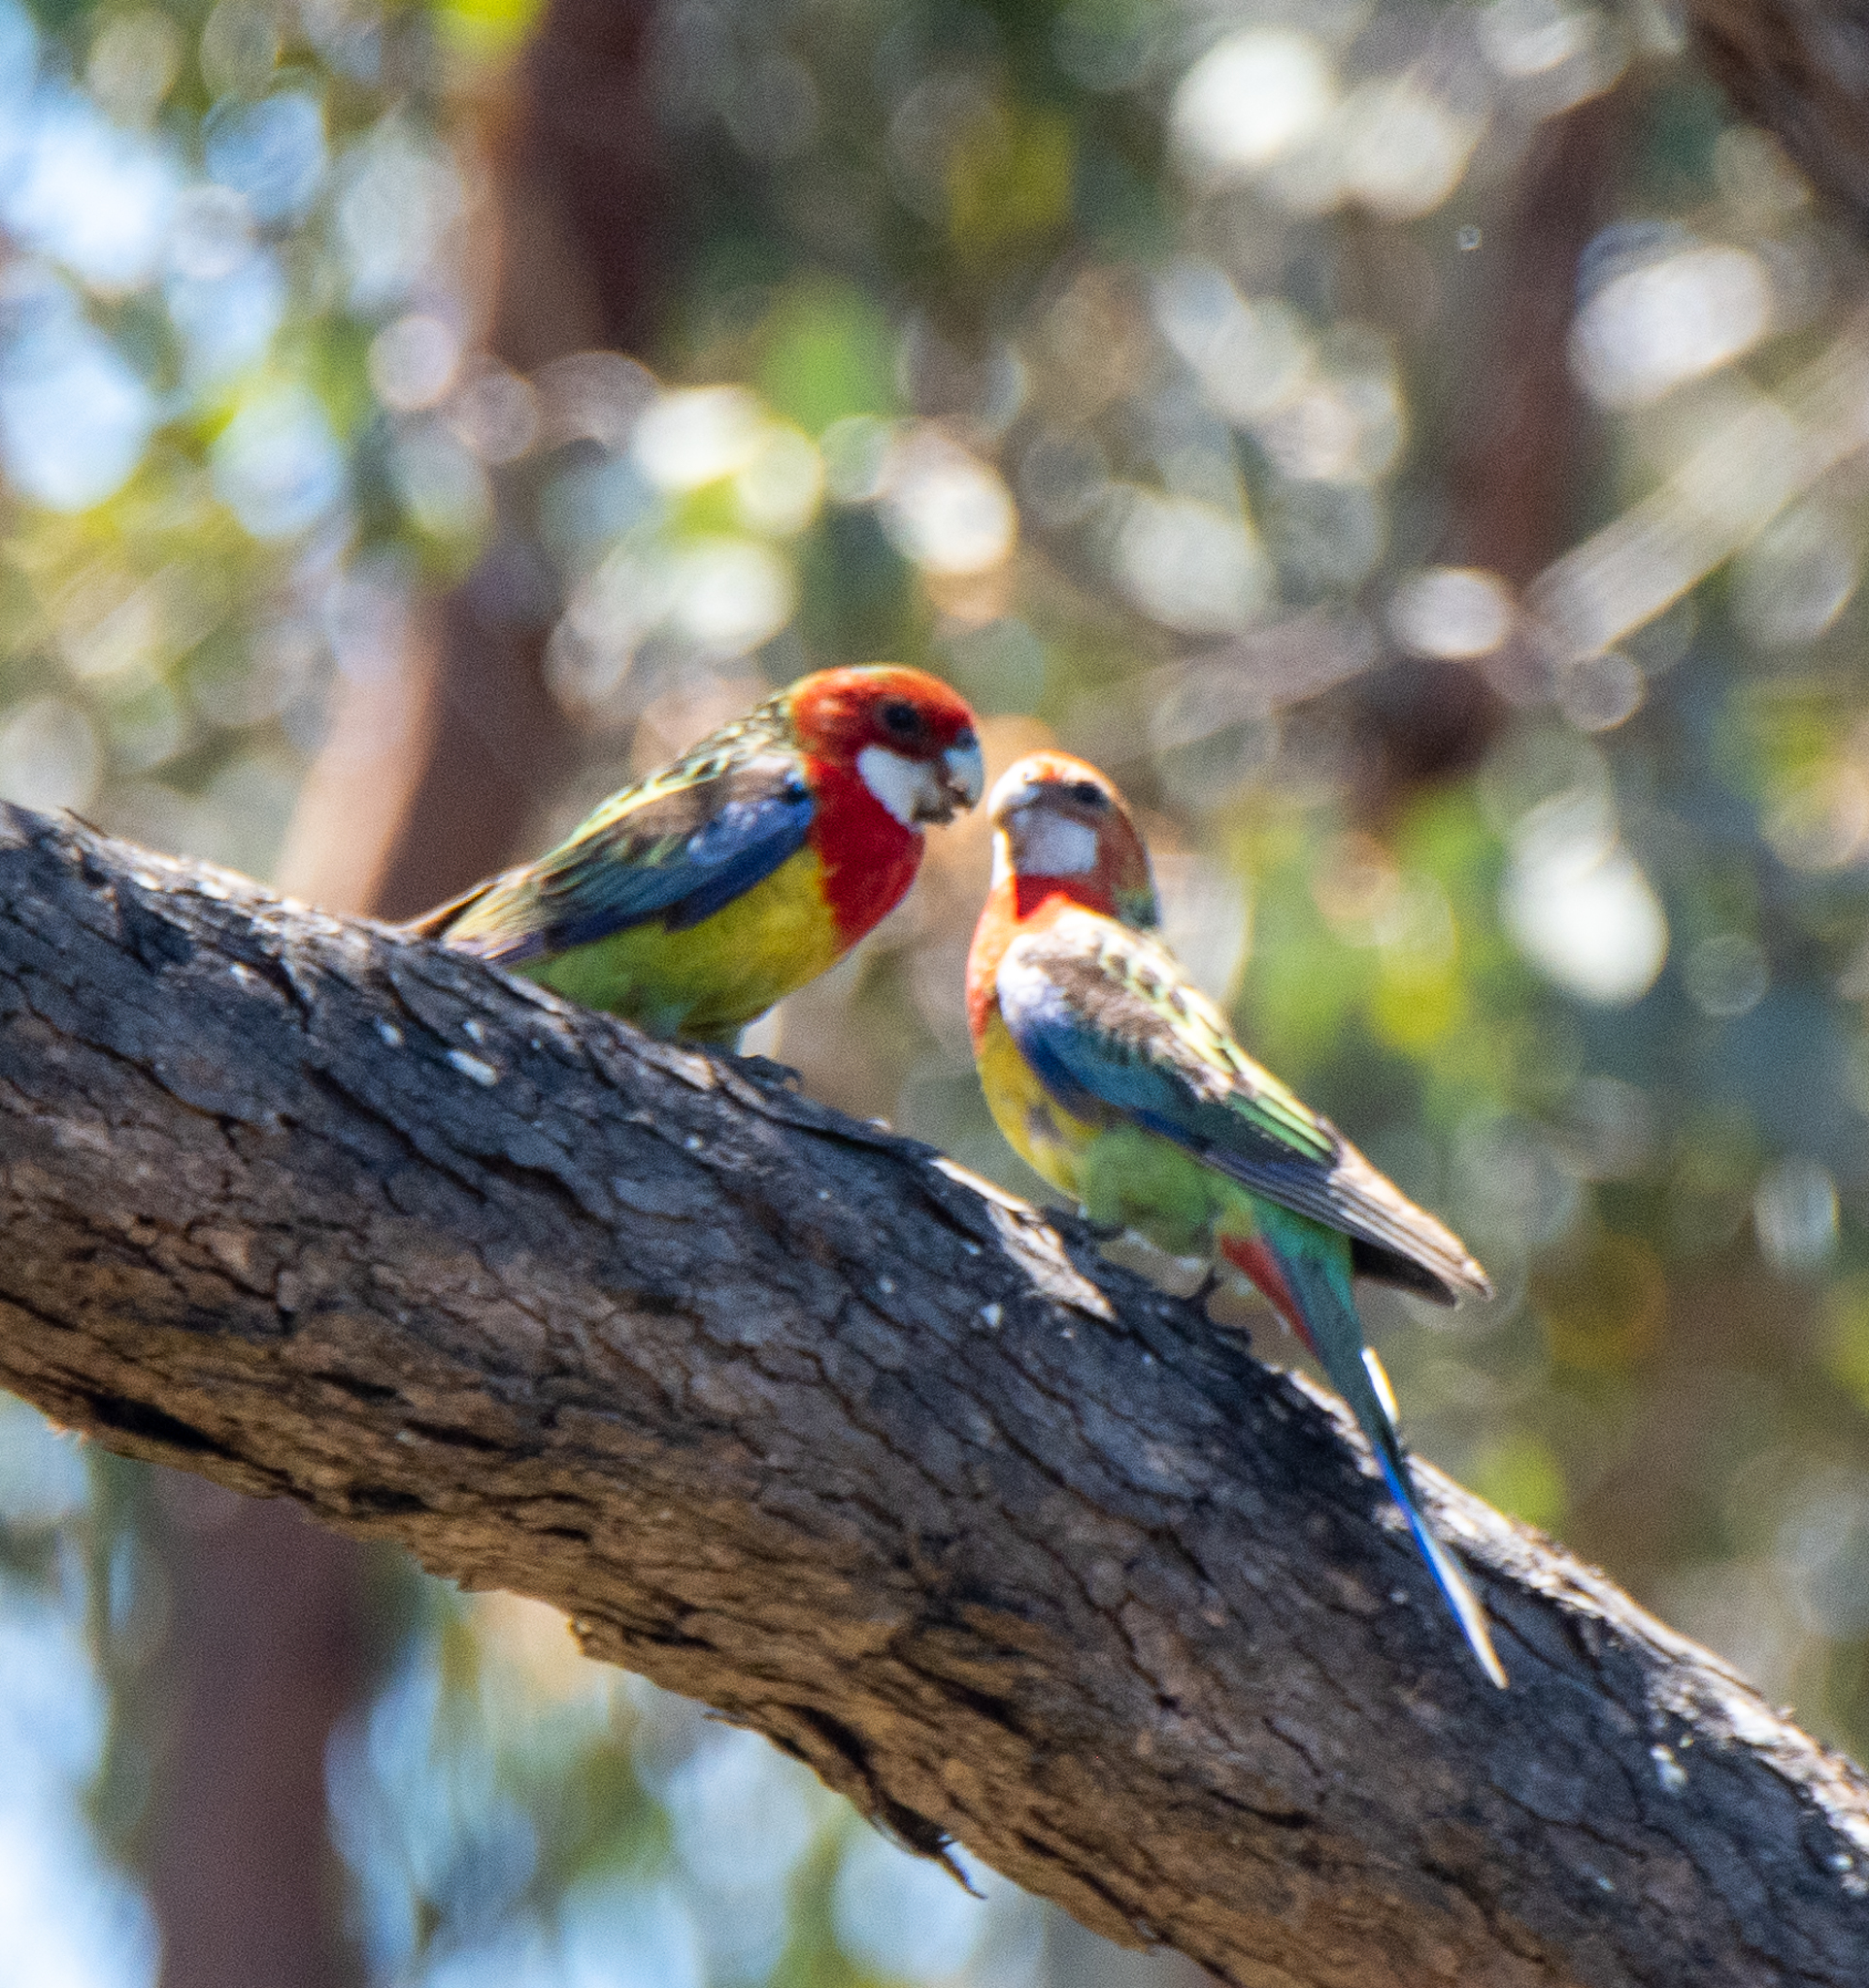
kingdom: Animalia
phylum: Chordata
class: Aves
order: Psittaciformes
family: Psittacidae
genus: Platycercus
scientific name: Platycercus eximius
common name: Eastern rosella
